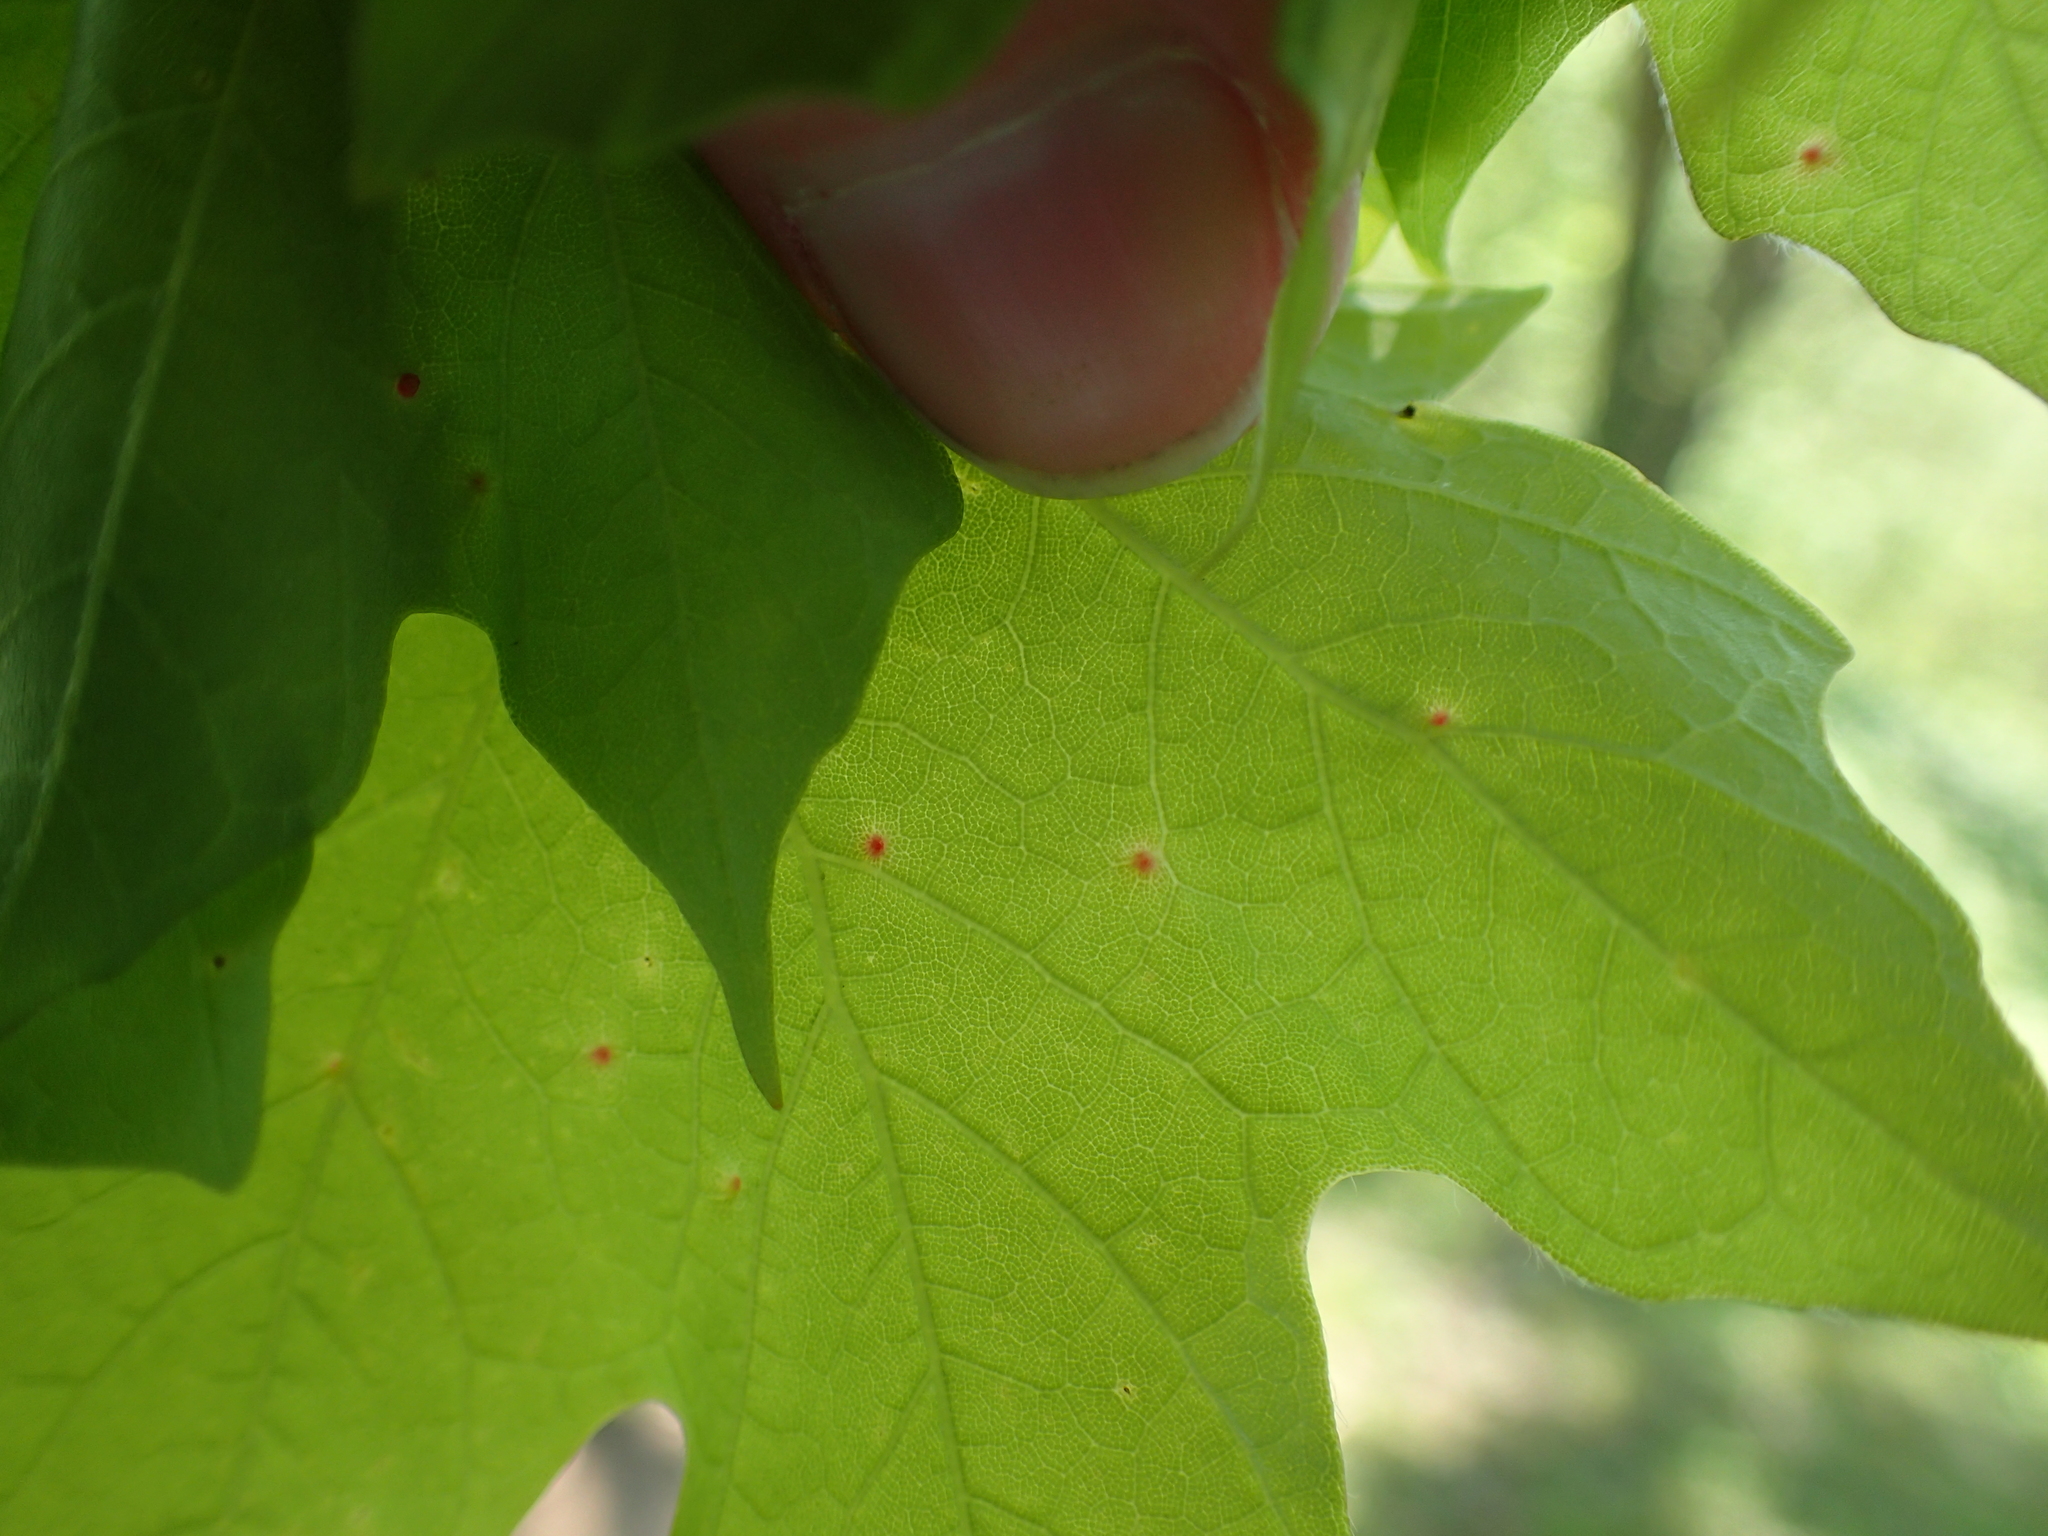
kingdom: Animalia
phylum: Arthropoda
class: Arachnida
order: Trombidiformes
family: Eriophyidae
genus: Vasates
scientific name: Vasates aceriscrumena
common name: Maple spindle gall mite
